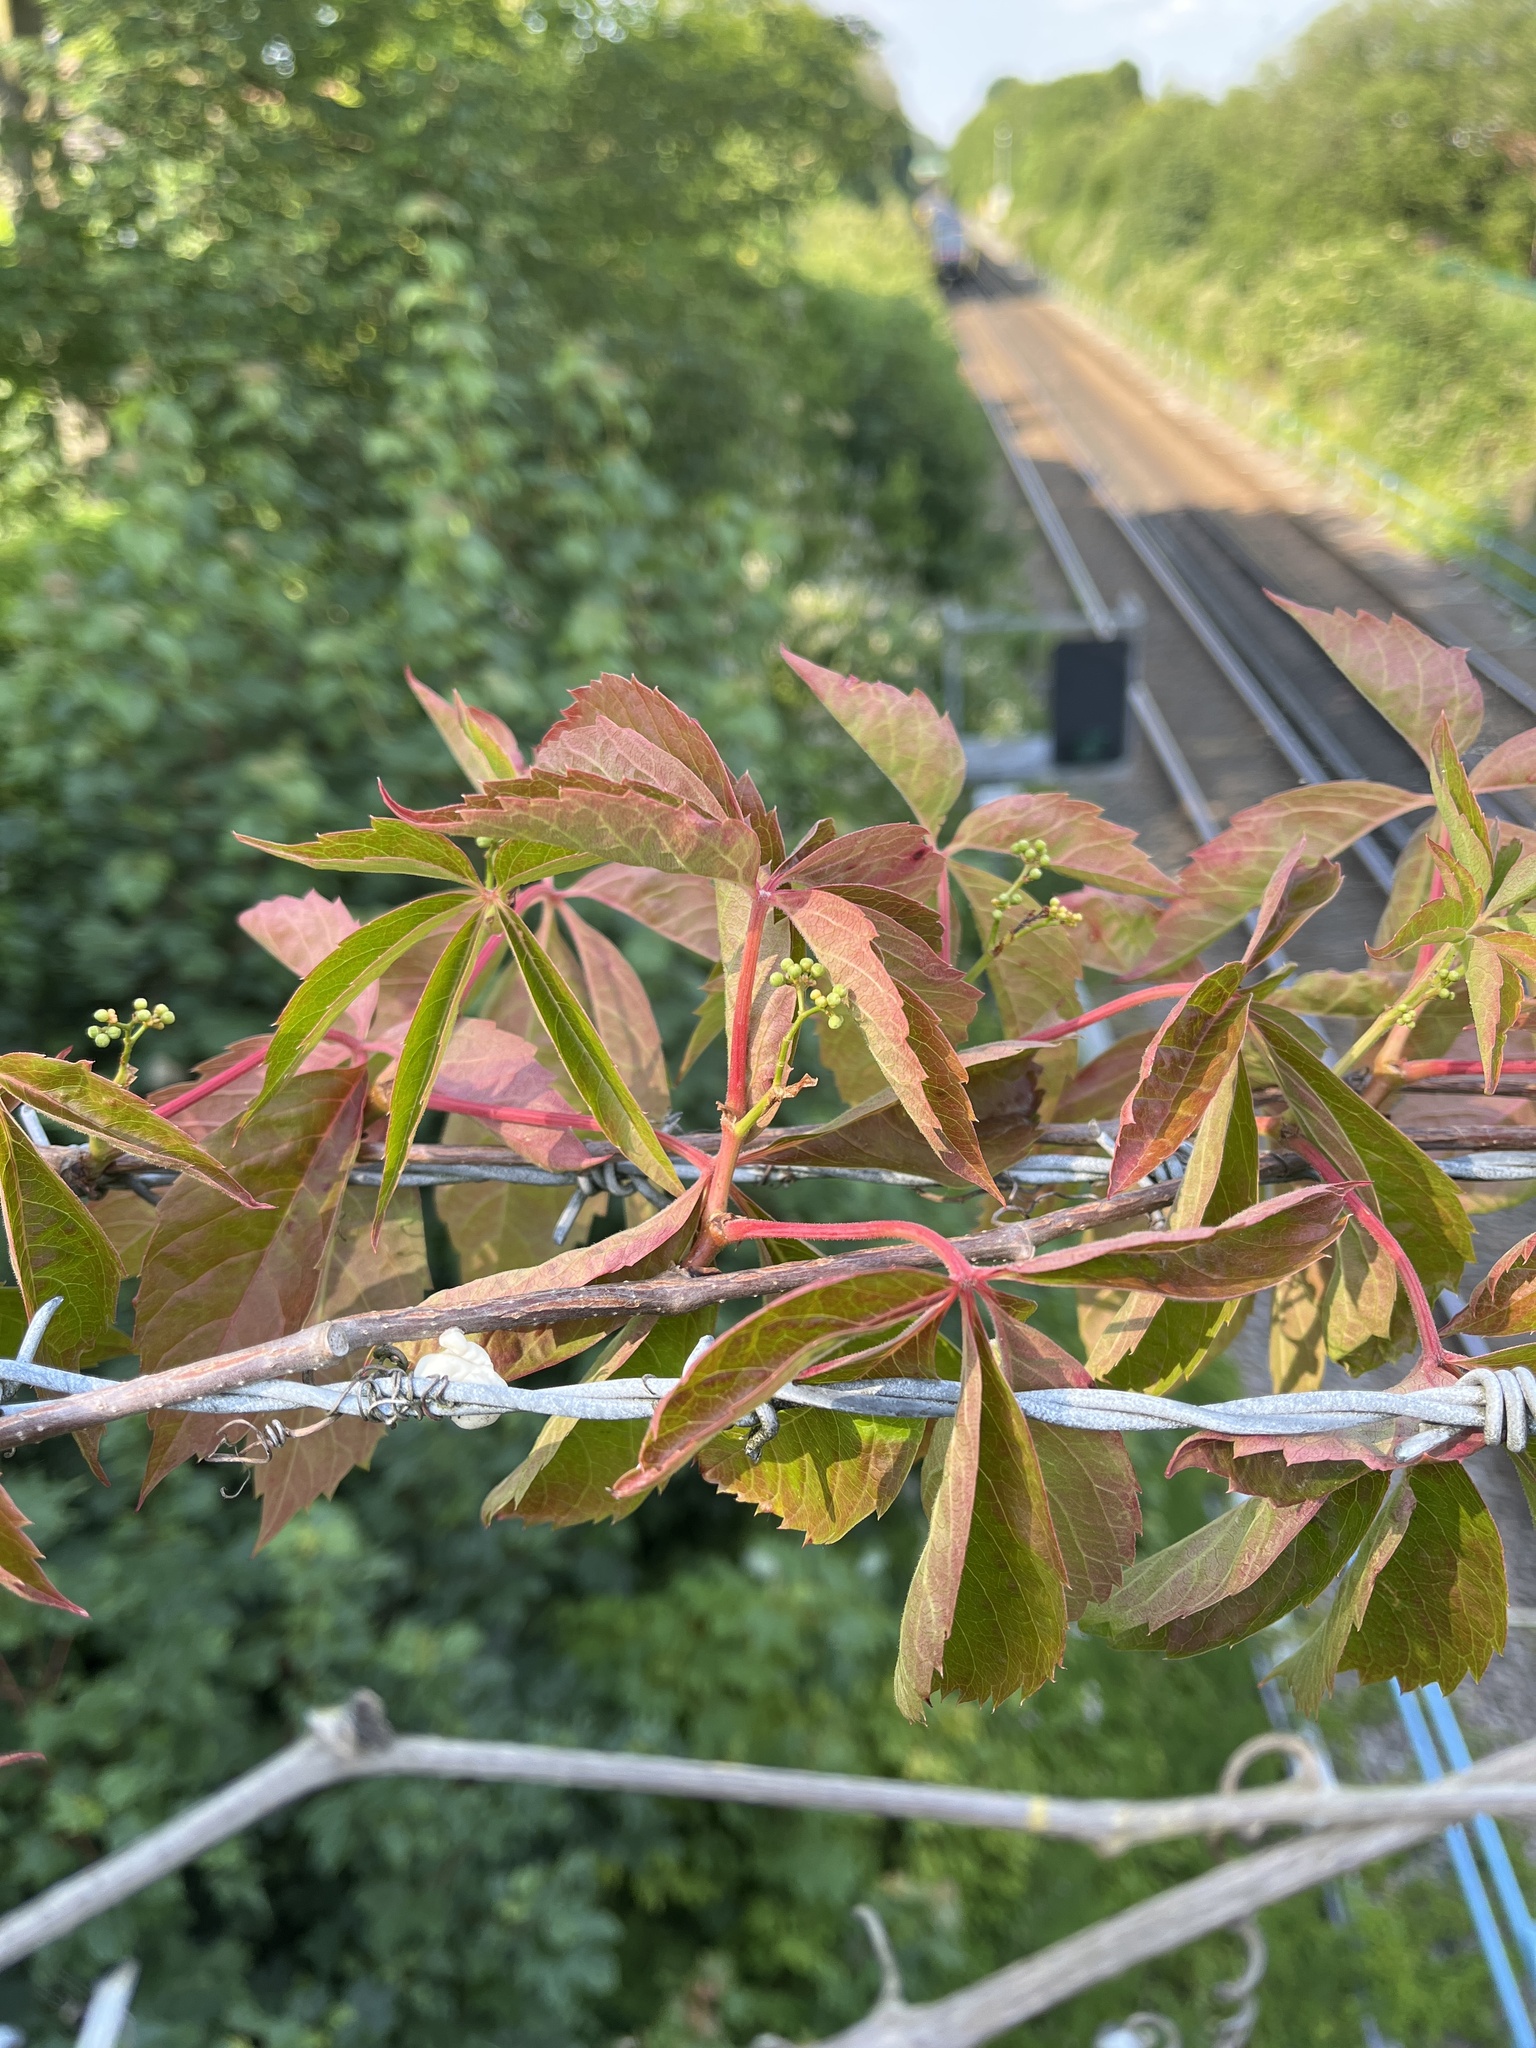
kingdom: Plantae
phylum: Tracheophyta
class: Magnoliopsida
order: Vitales
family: Vitaceae
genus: Parthenocissus
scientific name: Parthenocissus quinquefolia
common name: Virginia-creeper
